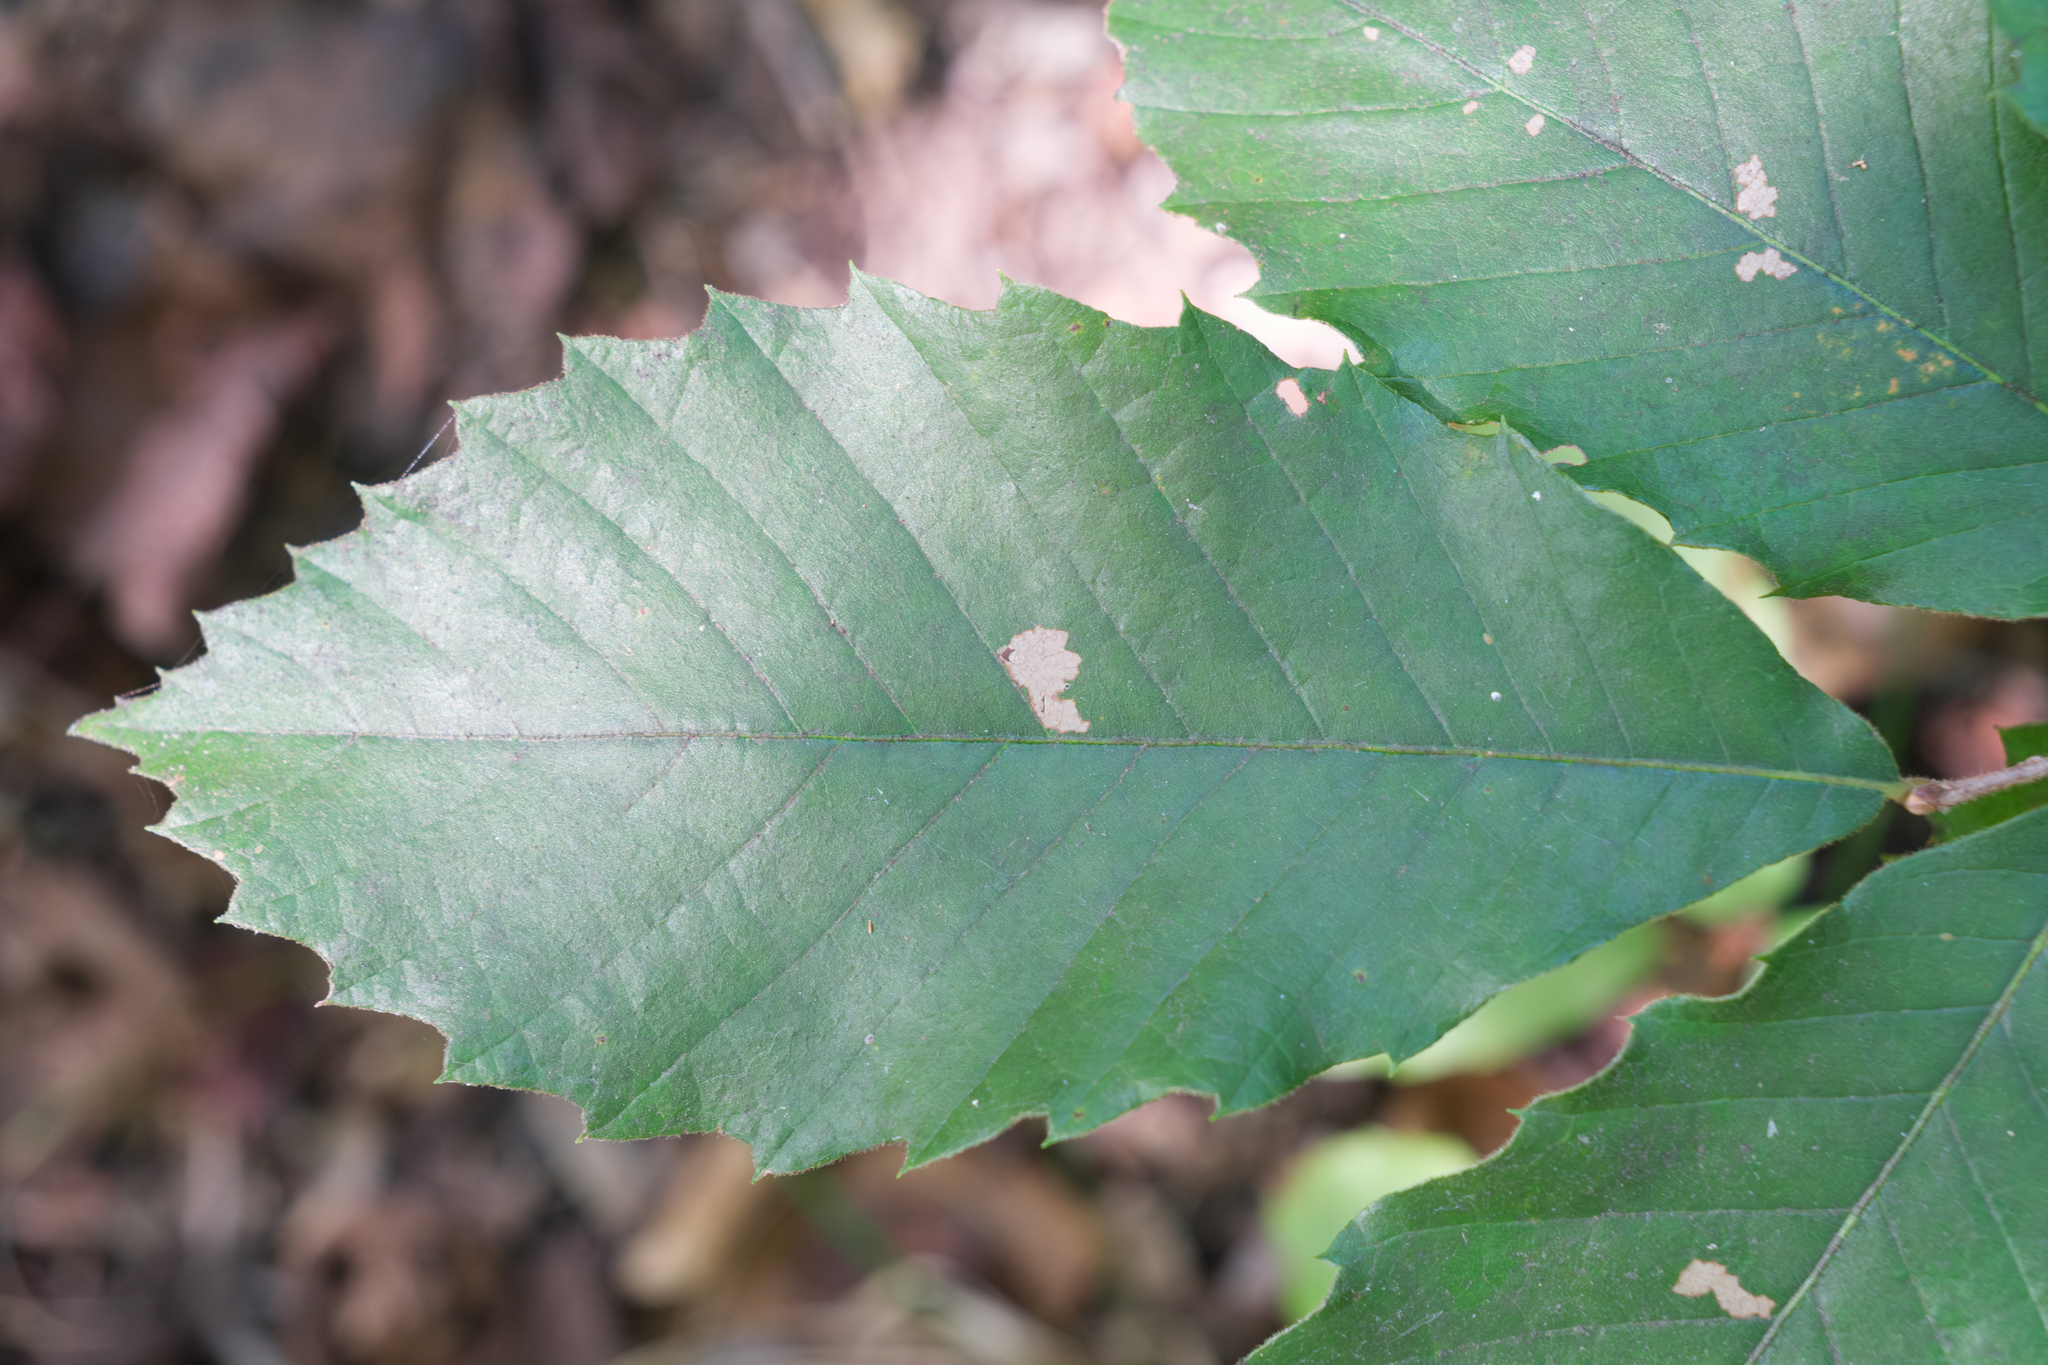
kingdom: Plantae
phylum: Tracheophyta
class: Magnoliopsida
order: Fagales
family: Fagaceae
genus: Castanea
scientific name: Castanea pumila
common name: Chinkapin
